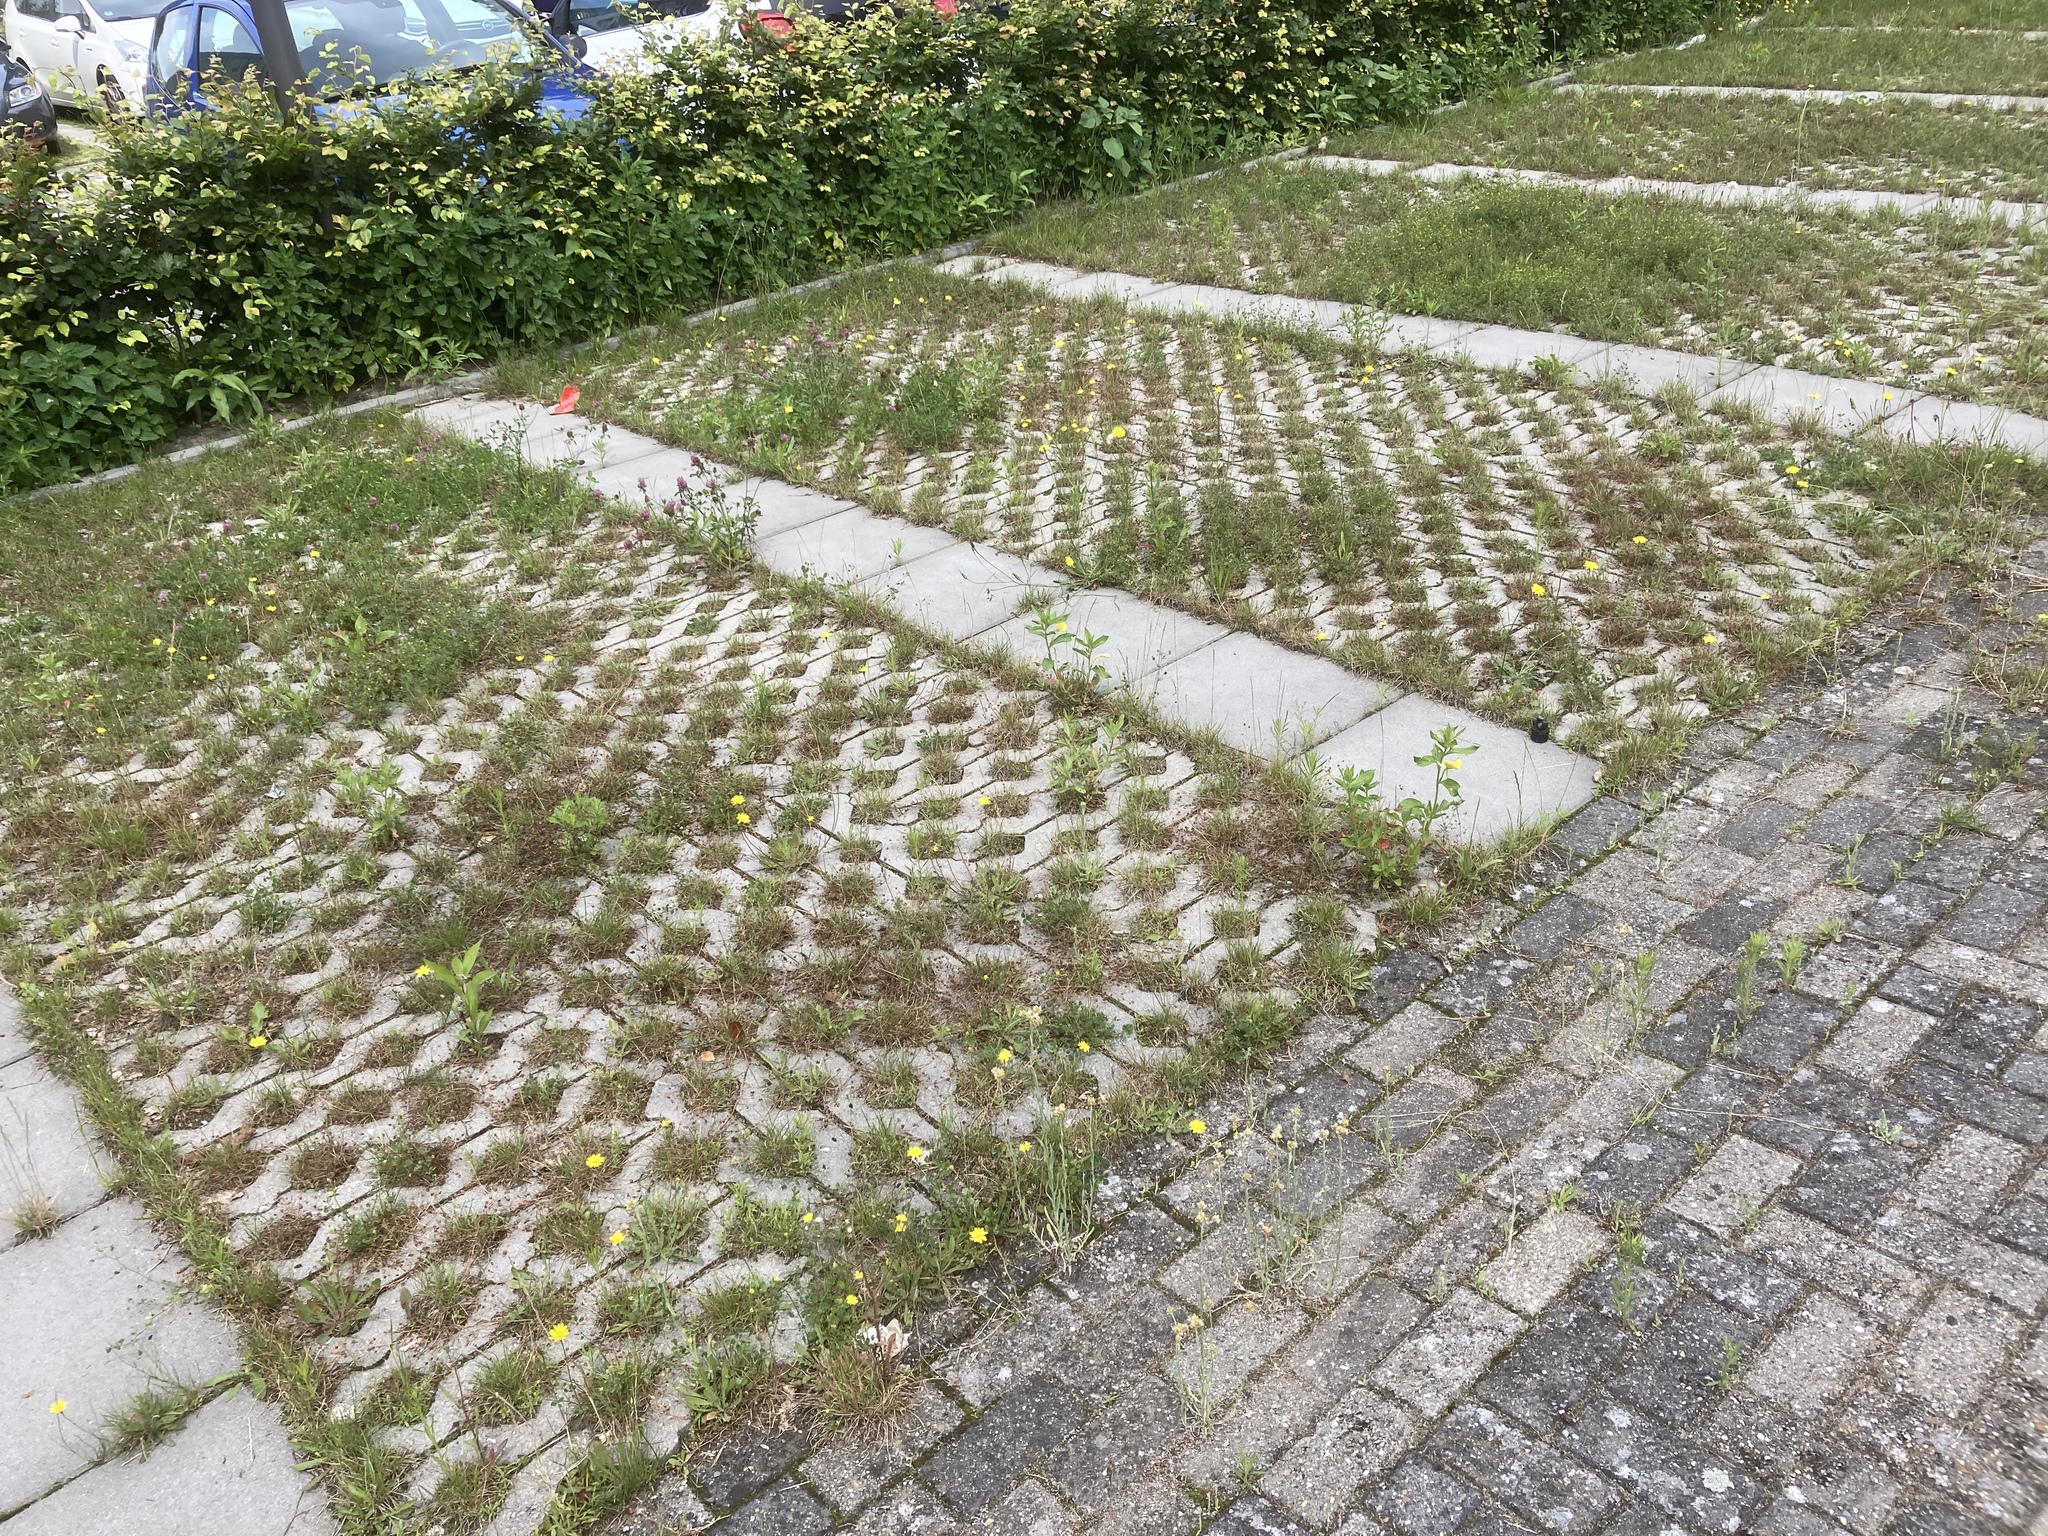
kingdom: Plantae
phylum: Tracheophyta
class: Magnoliopsida
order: Asterales
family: Asteraceae
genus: Helichrysum
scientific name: Helichrysum luteoalbum
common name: Daisy
